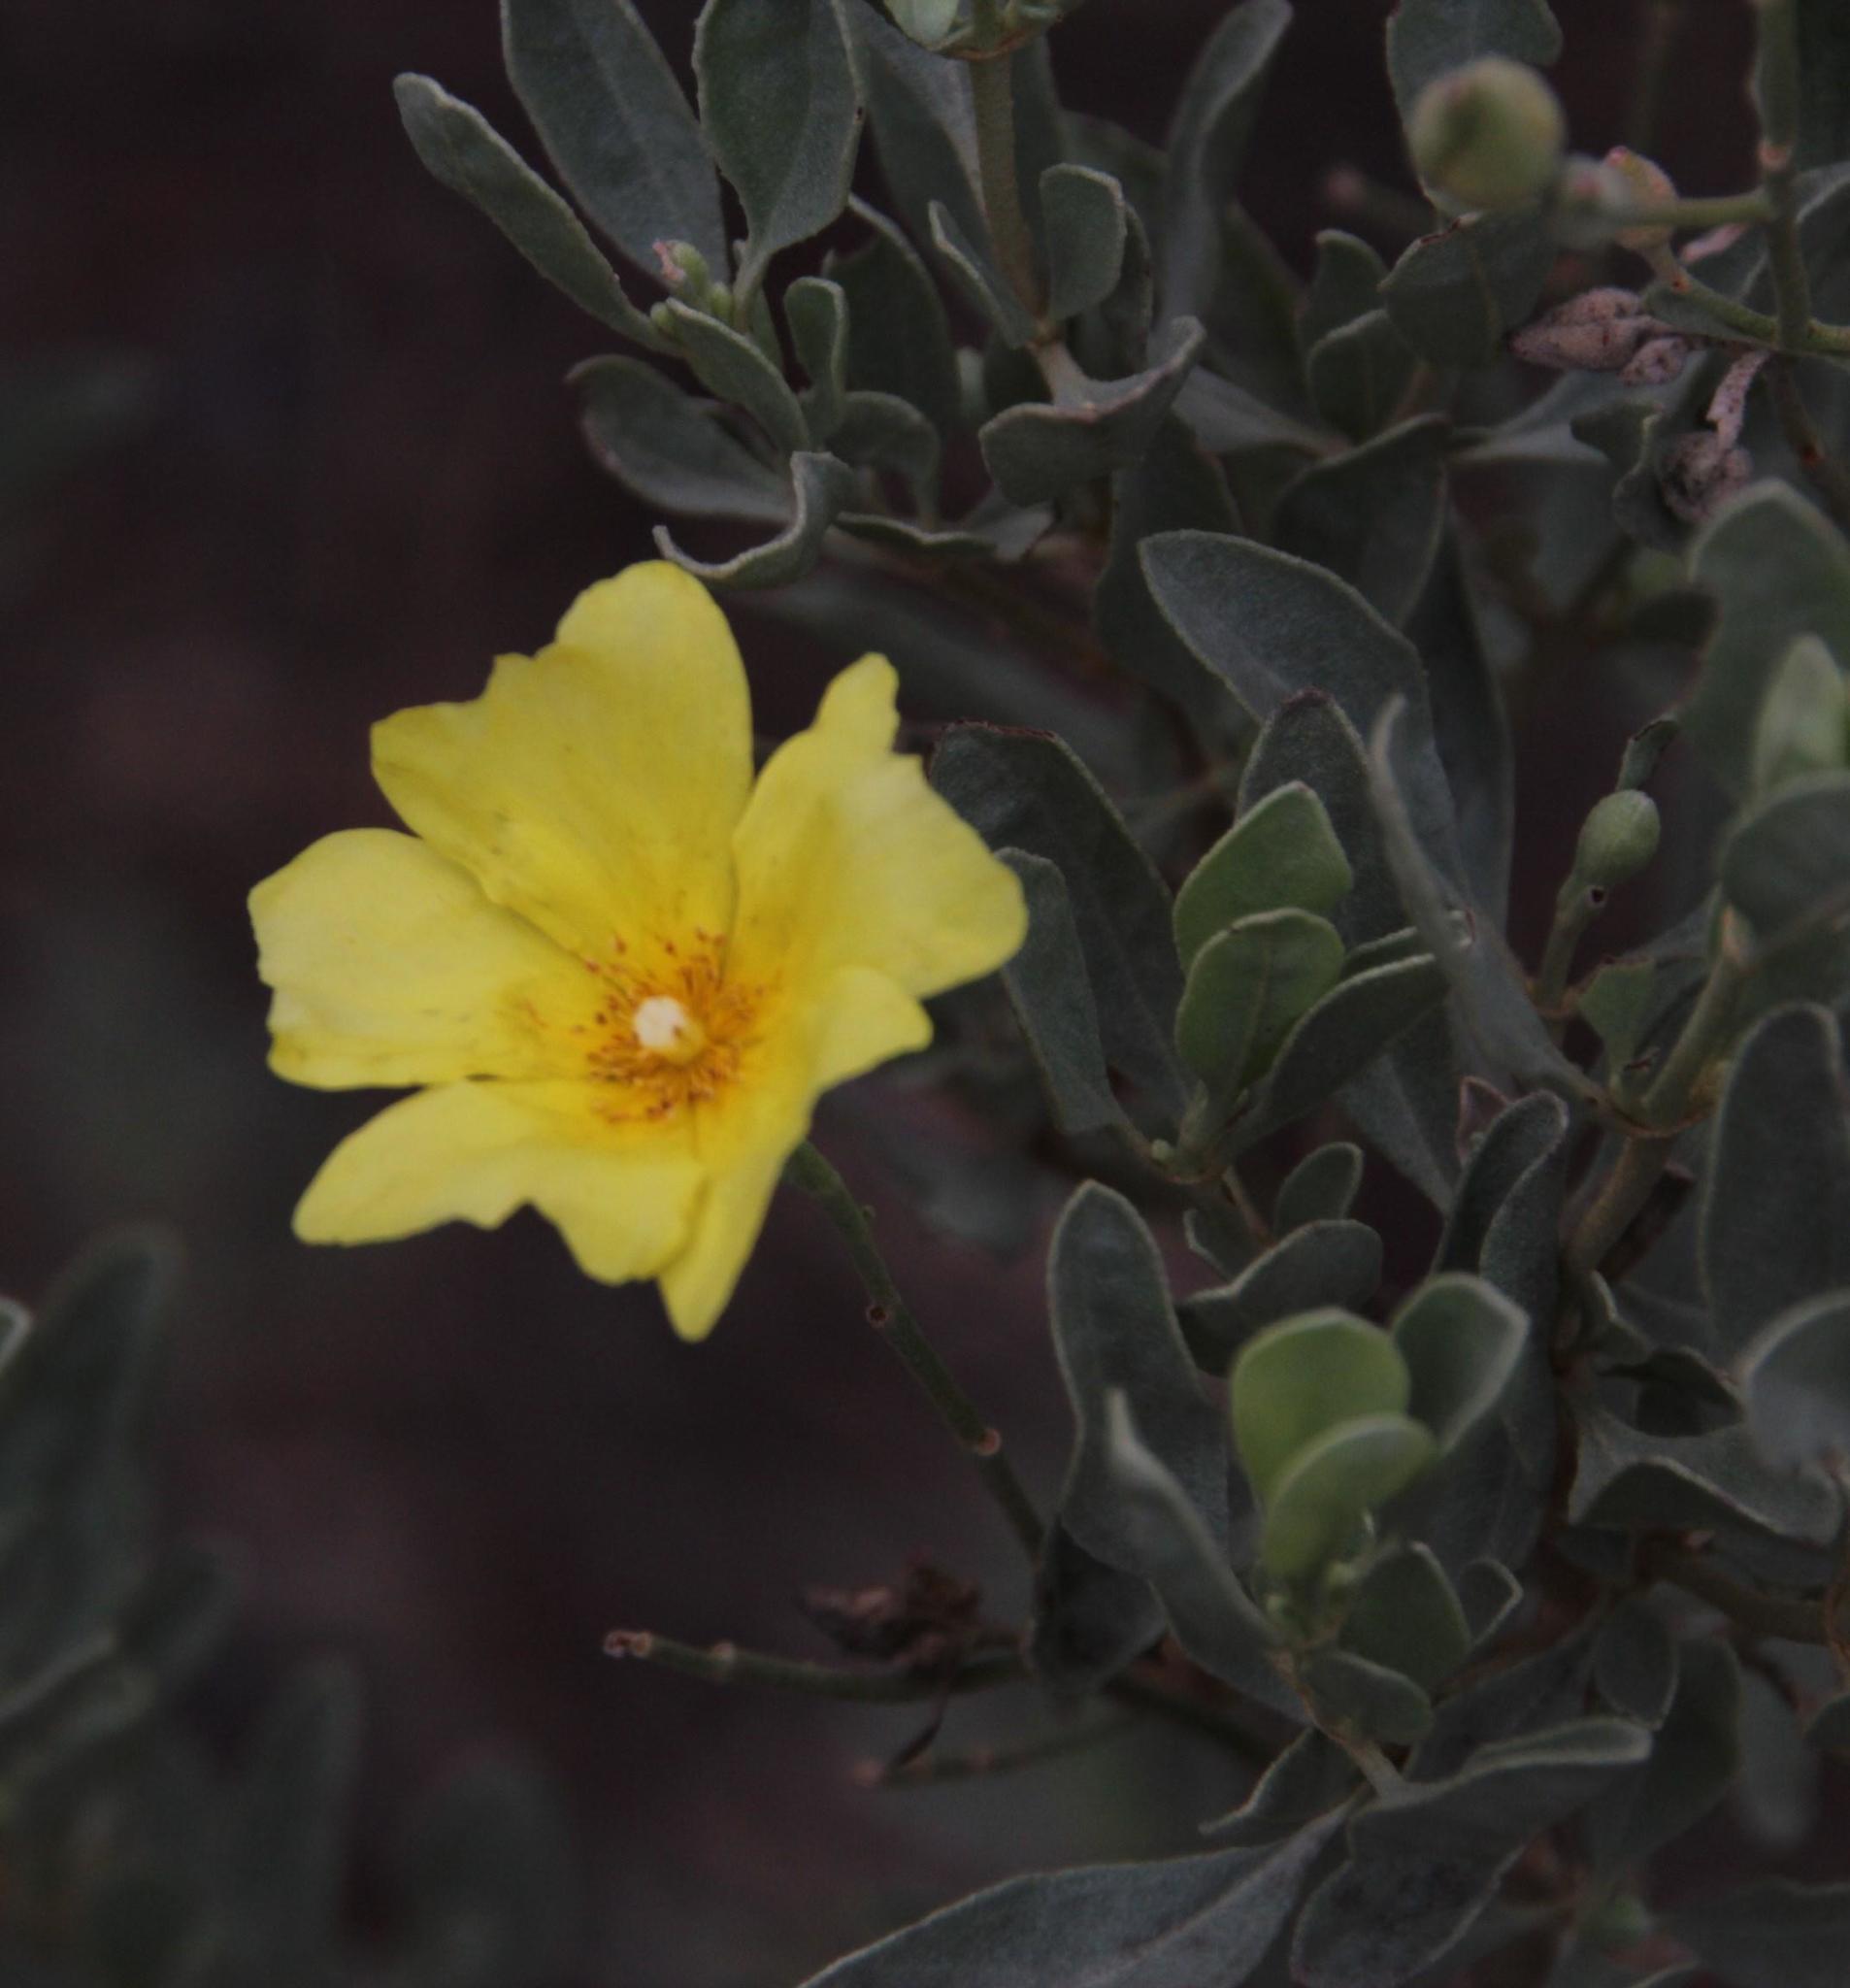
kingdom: Plantae
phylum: Tracheophyta
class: Magnoliopsida
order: Malvales
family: Cistaceae
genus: Halimium
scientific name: Halimium halimifolium
